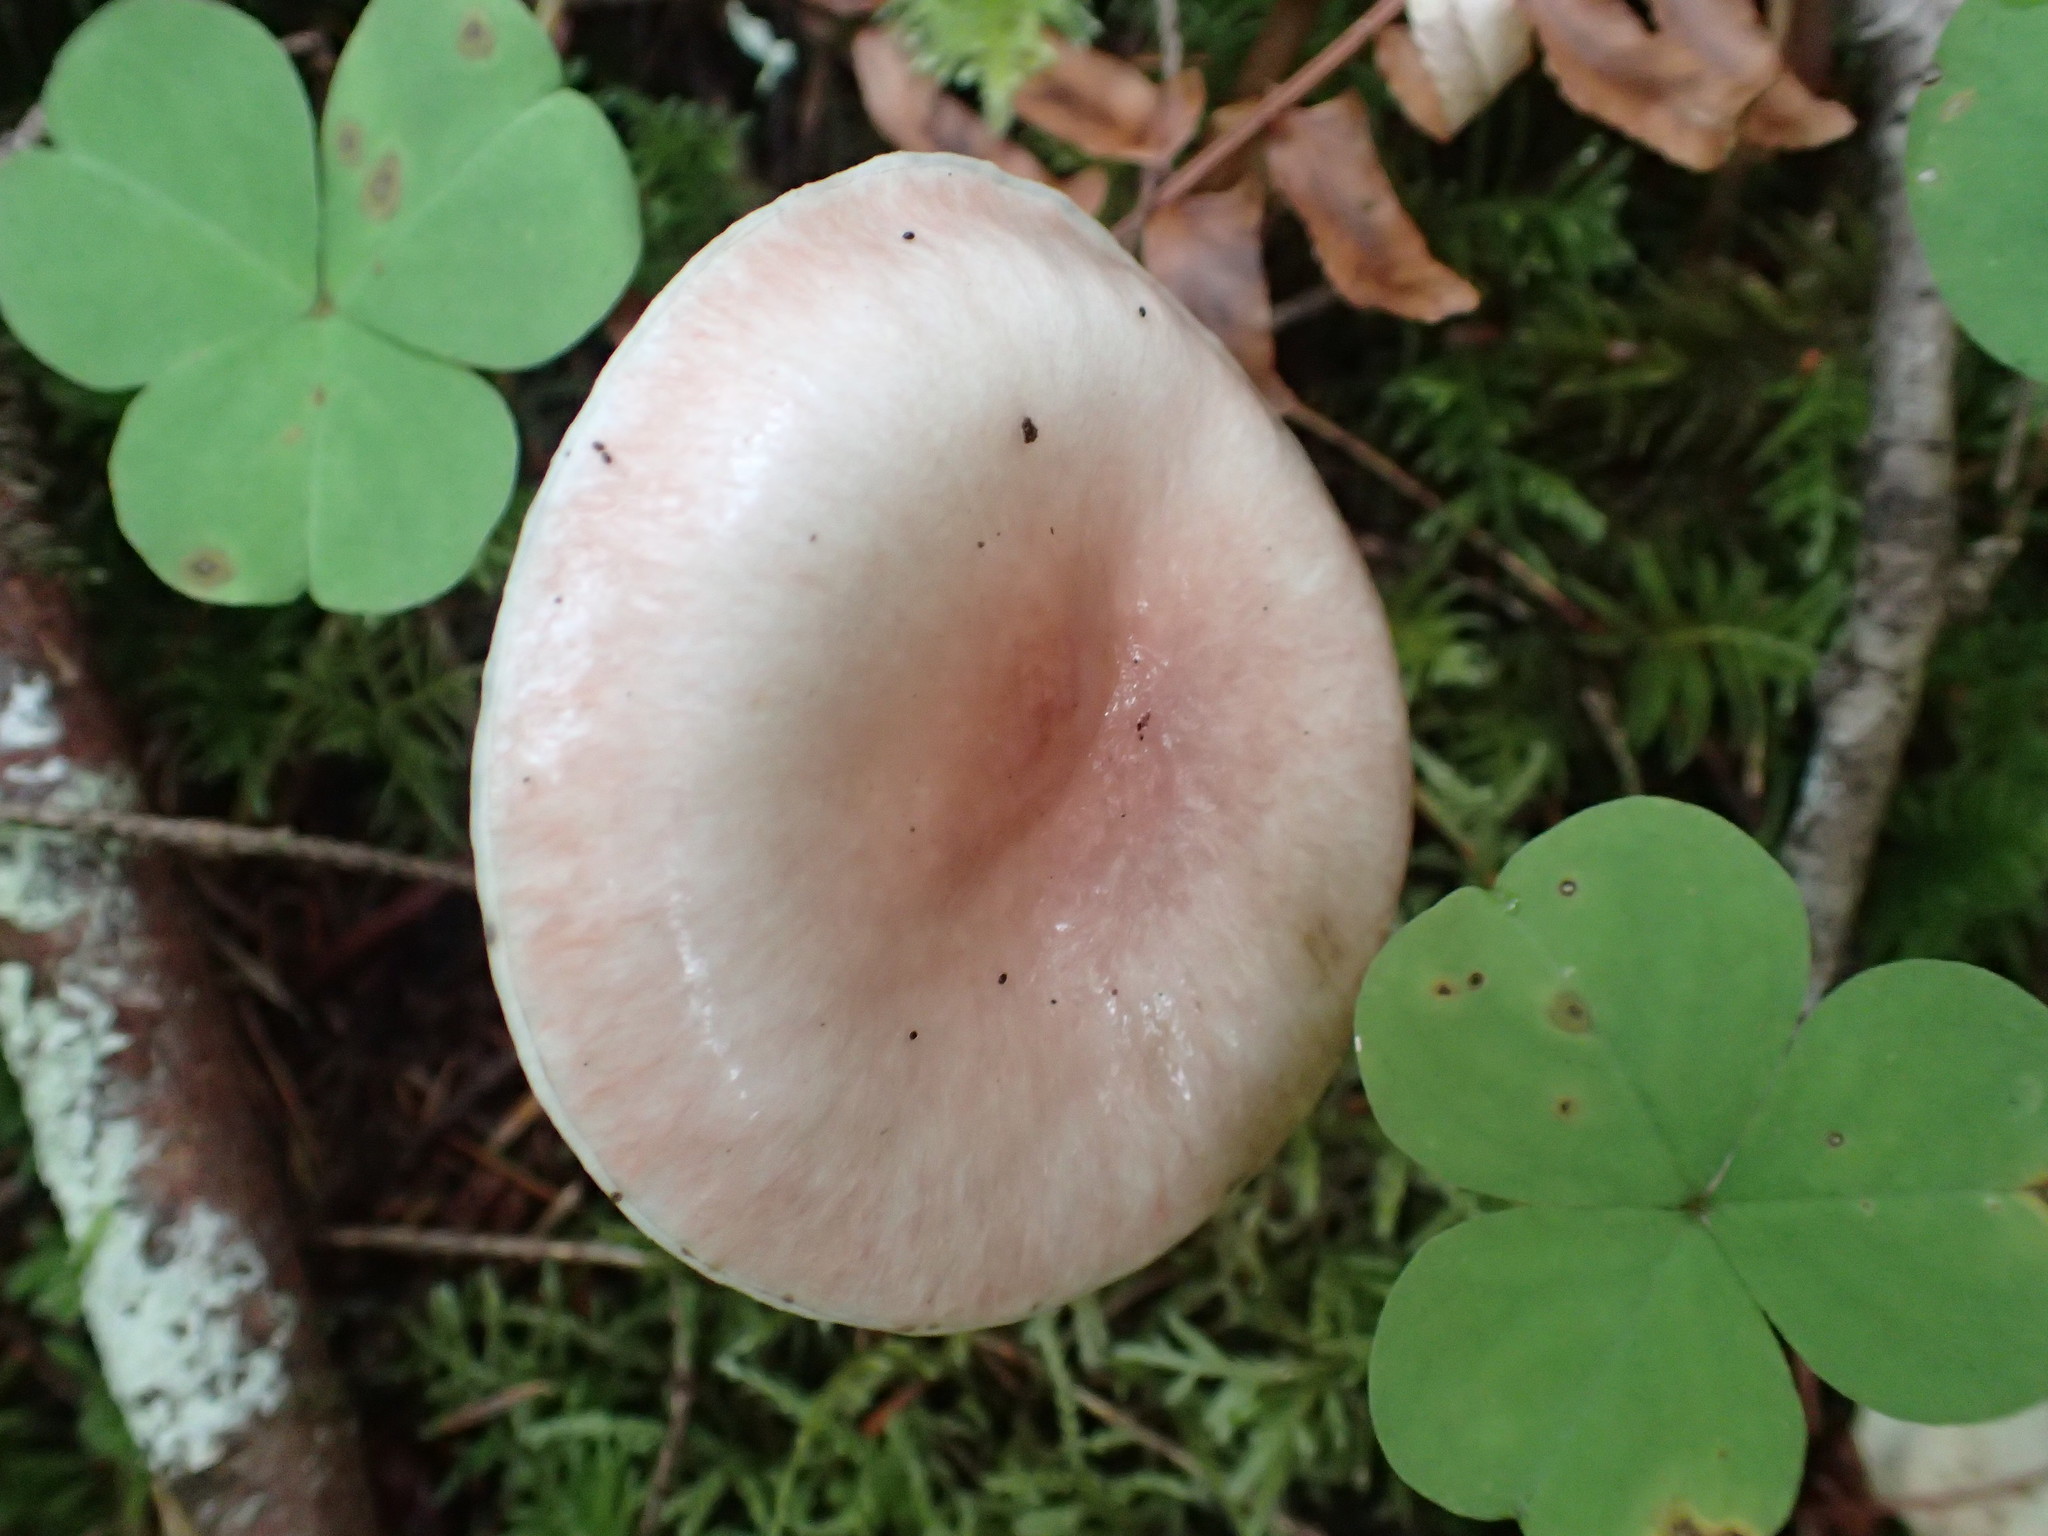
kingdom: Fungi
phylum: Basidiomycota
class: Agaricomycetes
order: Boletales
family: Gomphidiaceae
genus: Gomphidius
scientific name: Gomphidius smithii
